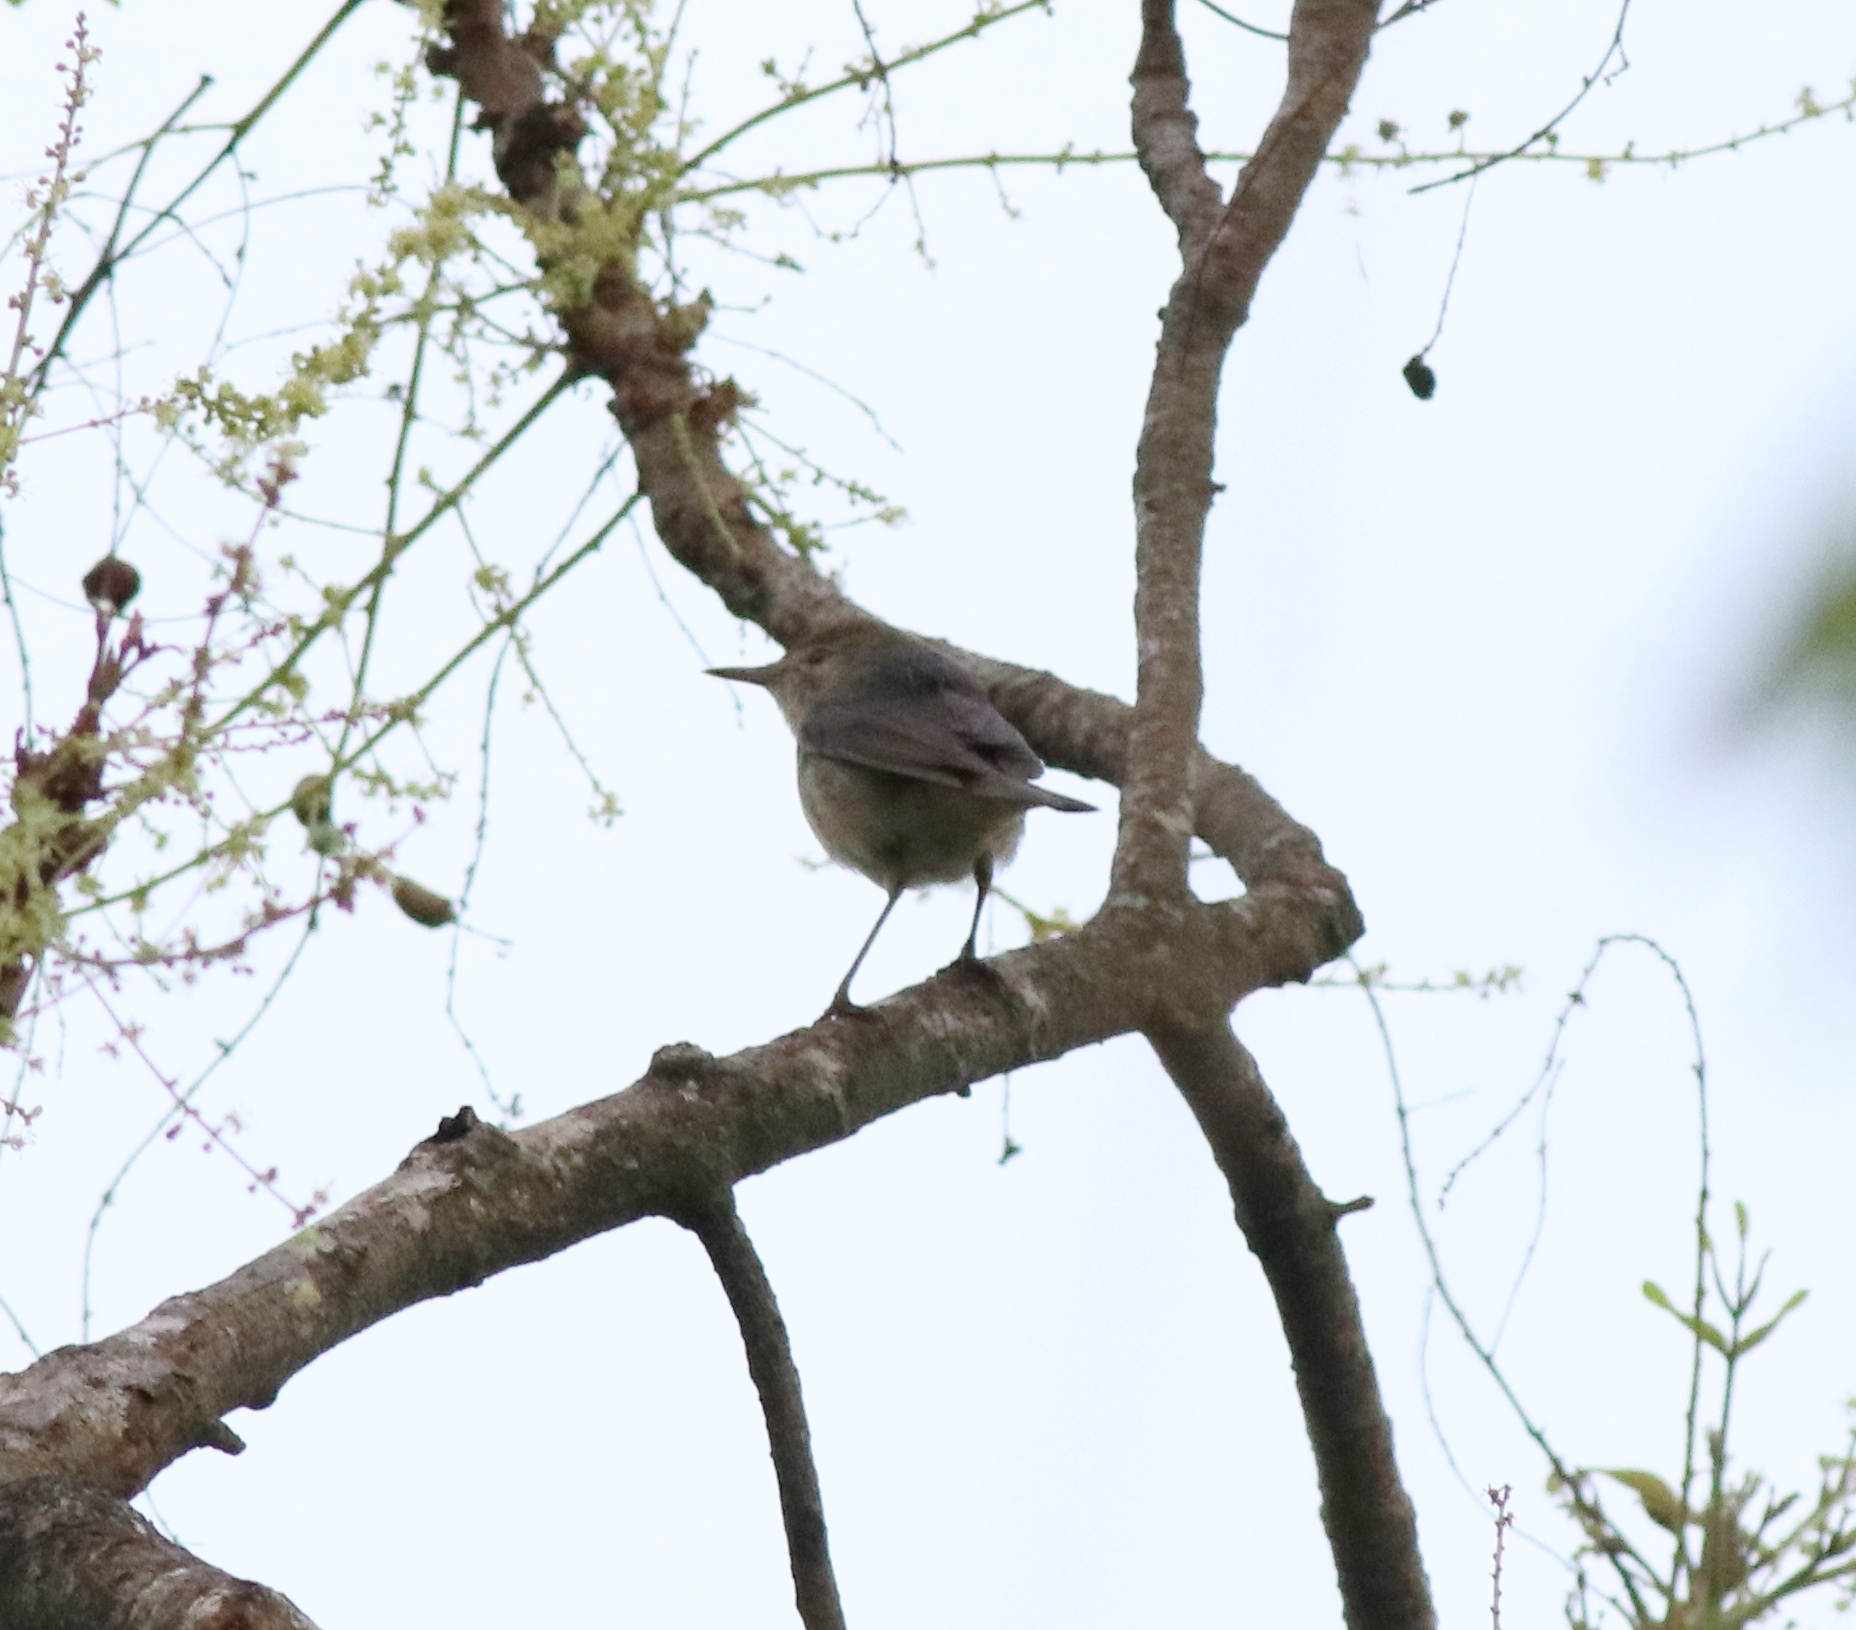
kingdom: Animalia
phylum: Chordata
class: Aves
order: Passeriformes
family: Acrocephalidae
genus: Acrocephalus
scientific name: Acrocephalus dumetorum
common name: Blyth's reed warbler
